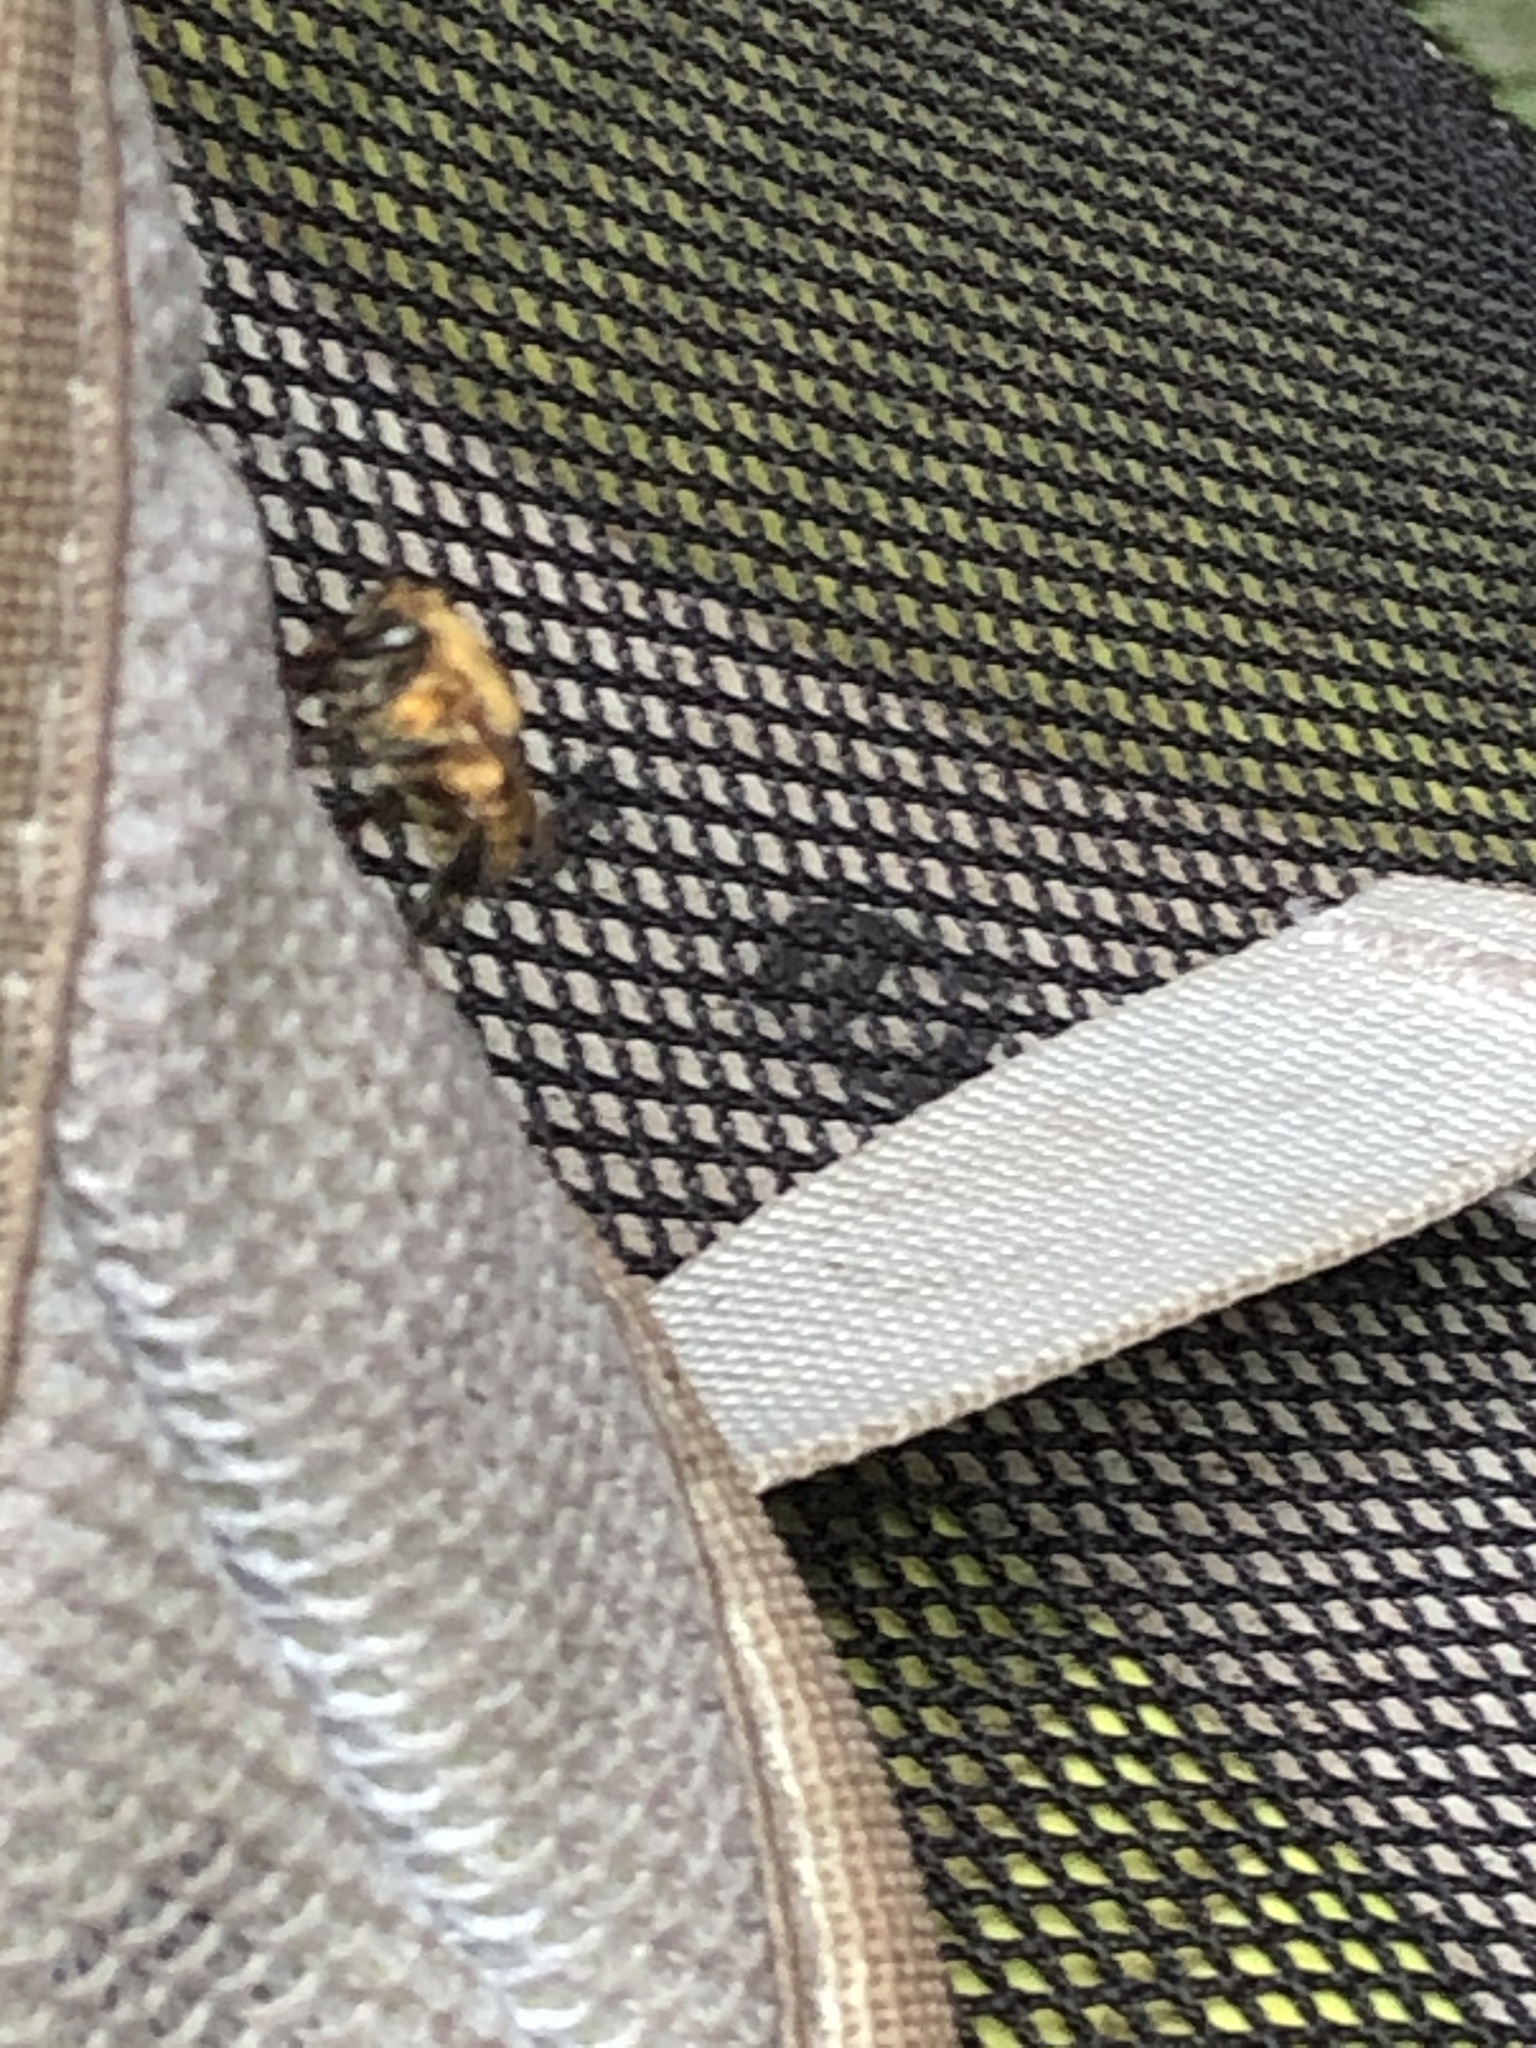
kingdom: Animalia
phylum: Arthropoda
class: Insecta
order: Hymenoptera
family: Apidae
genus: Melipona
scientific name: Melipona eburnea
